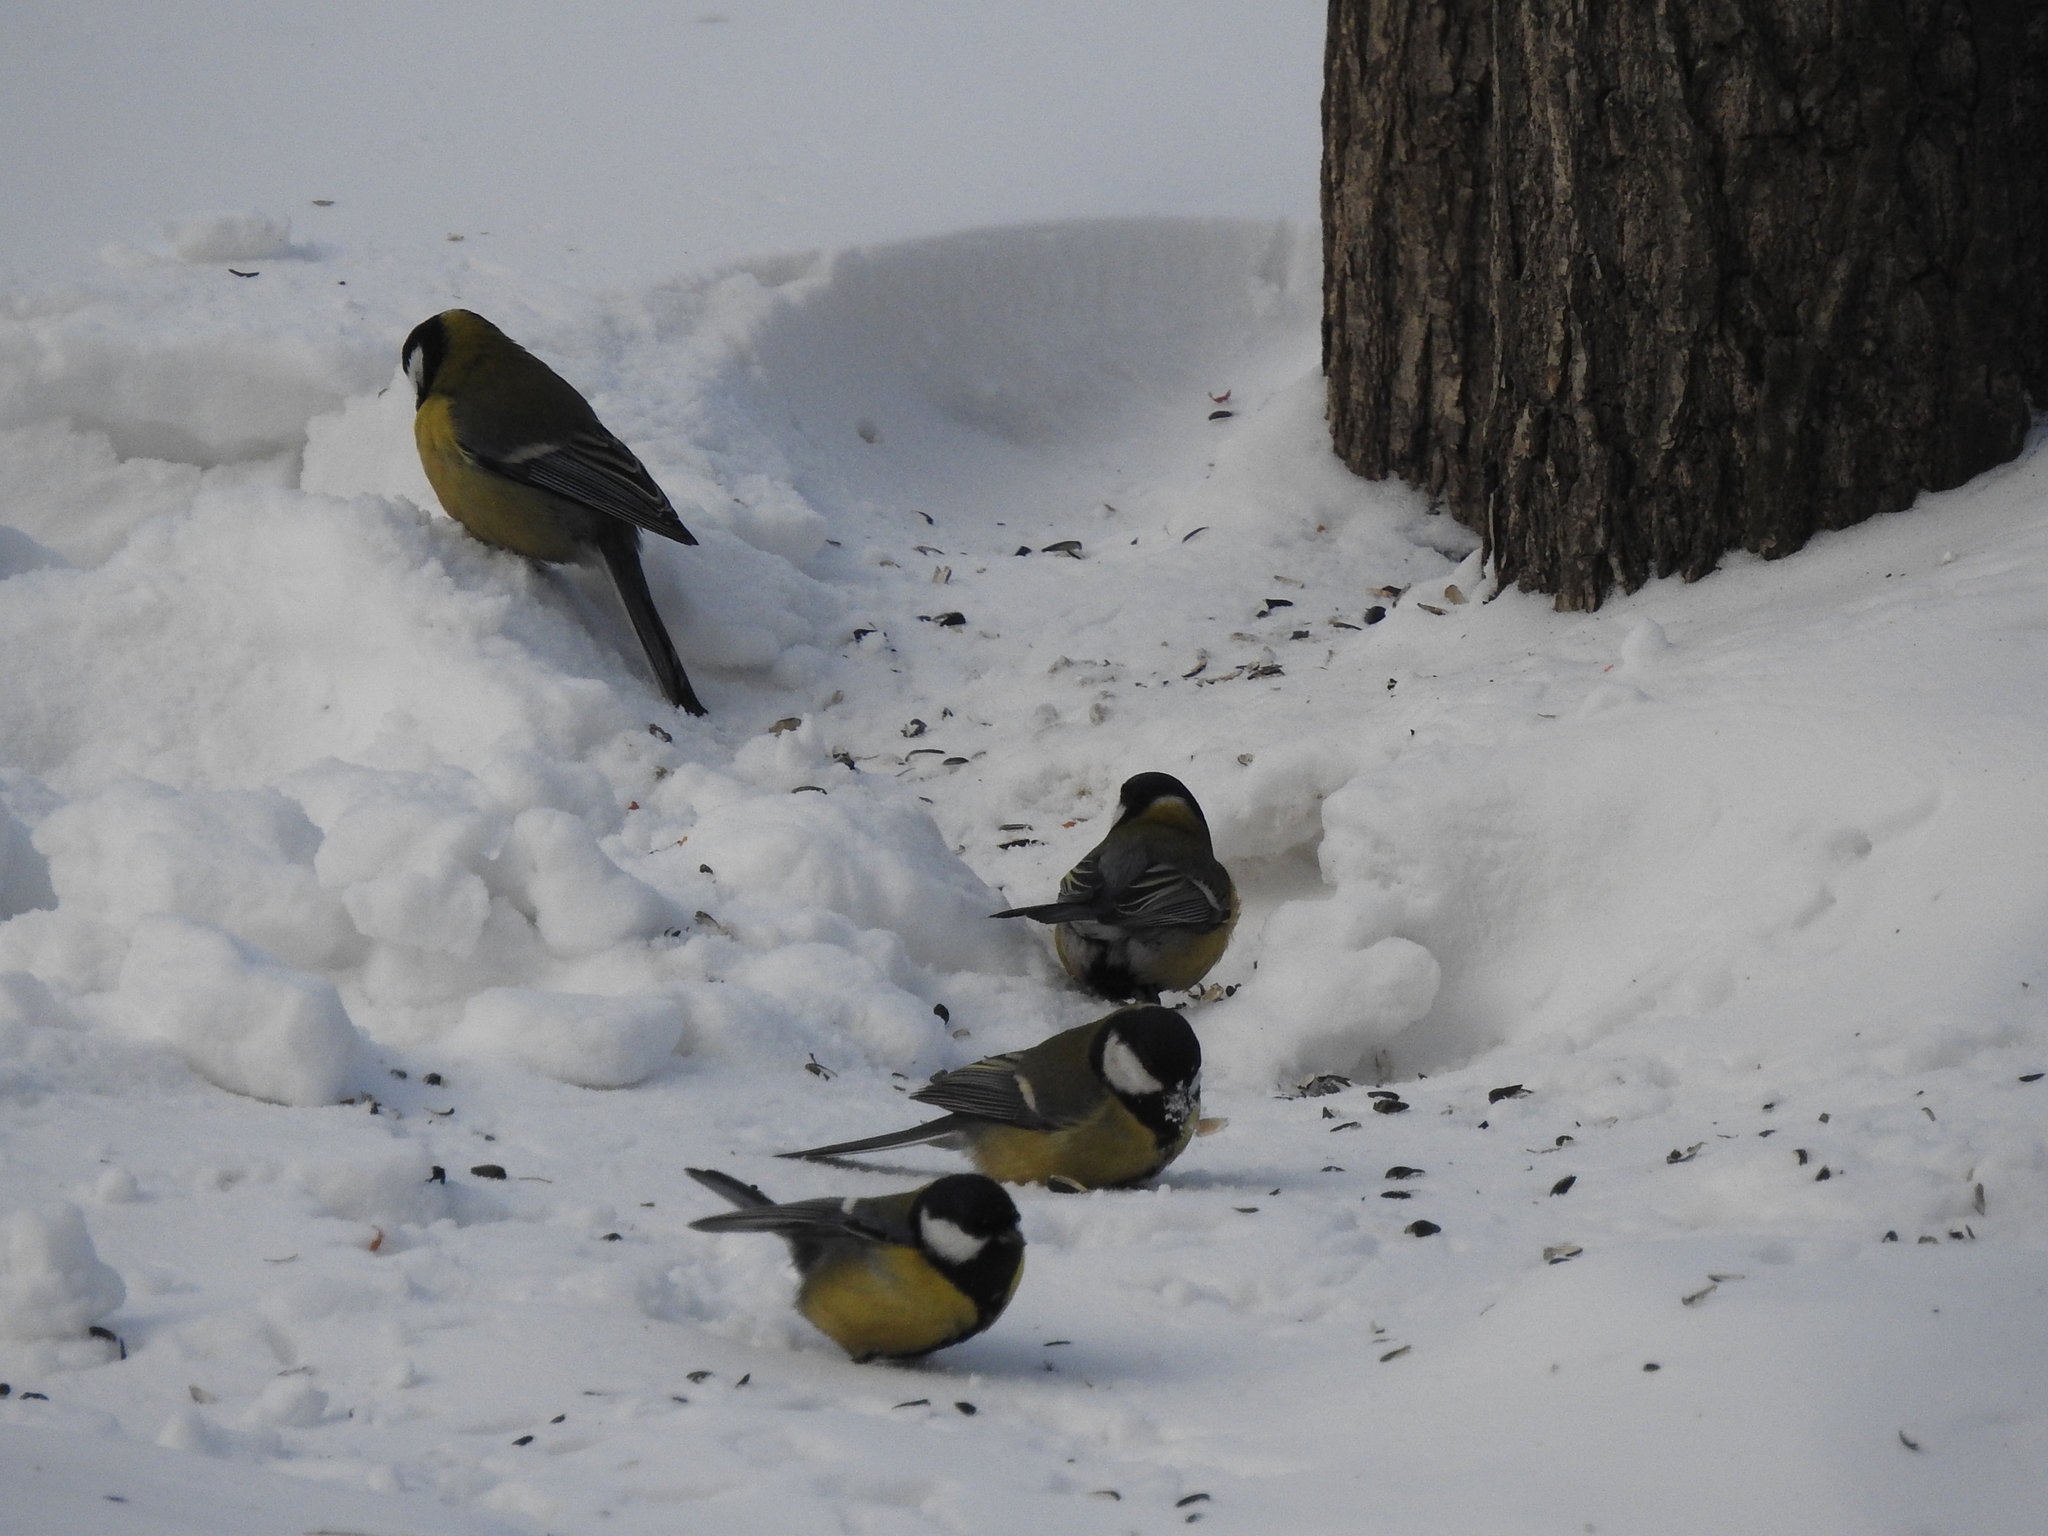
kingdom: Animalia
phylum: Chordata
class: Aves
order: Passeriformes
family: Paridae
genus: Parus
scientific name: Parus major
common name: Great tit
